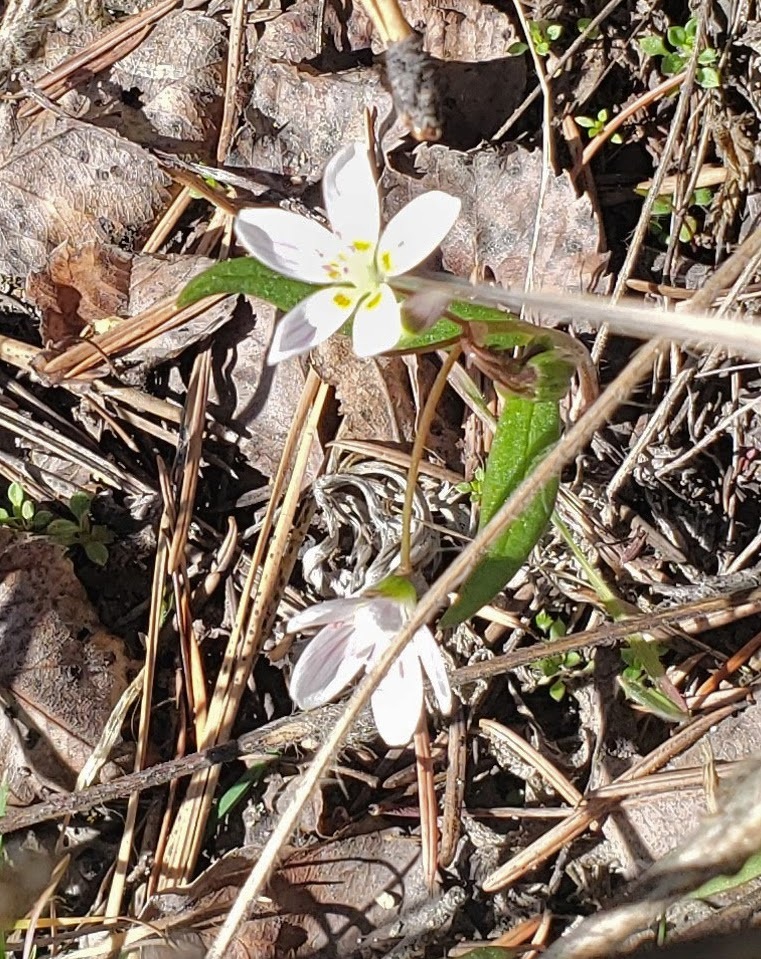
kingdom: Plantae
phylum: Tracheophyta
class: Magnoliopsida
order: Caryophyllales
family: Montiaceae
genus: Claytonia
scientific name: Claytonia lanceolata
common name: Western spring-beauty
